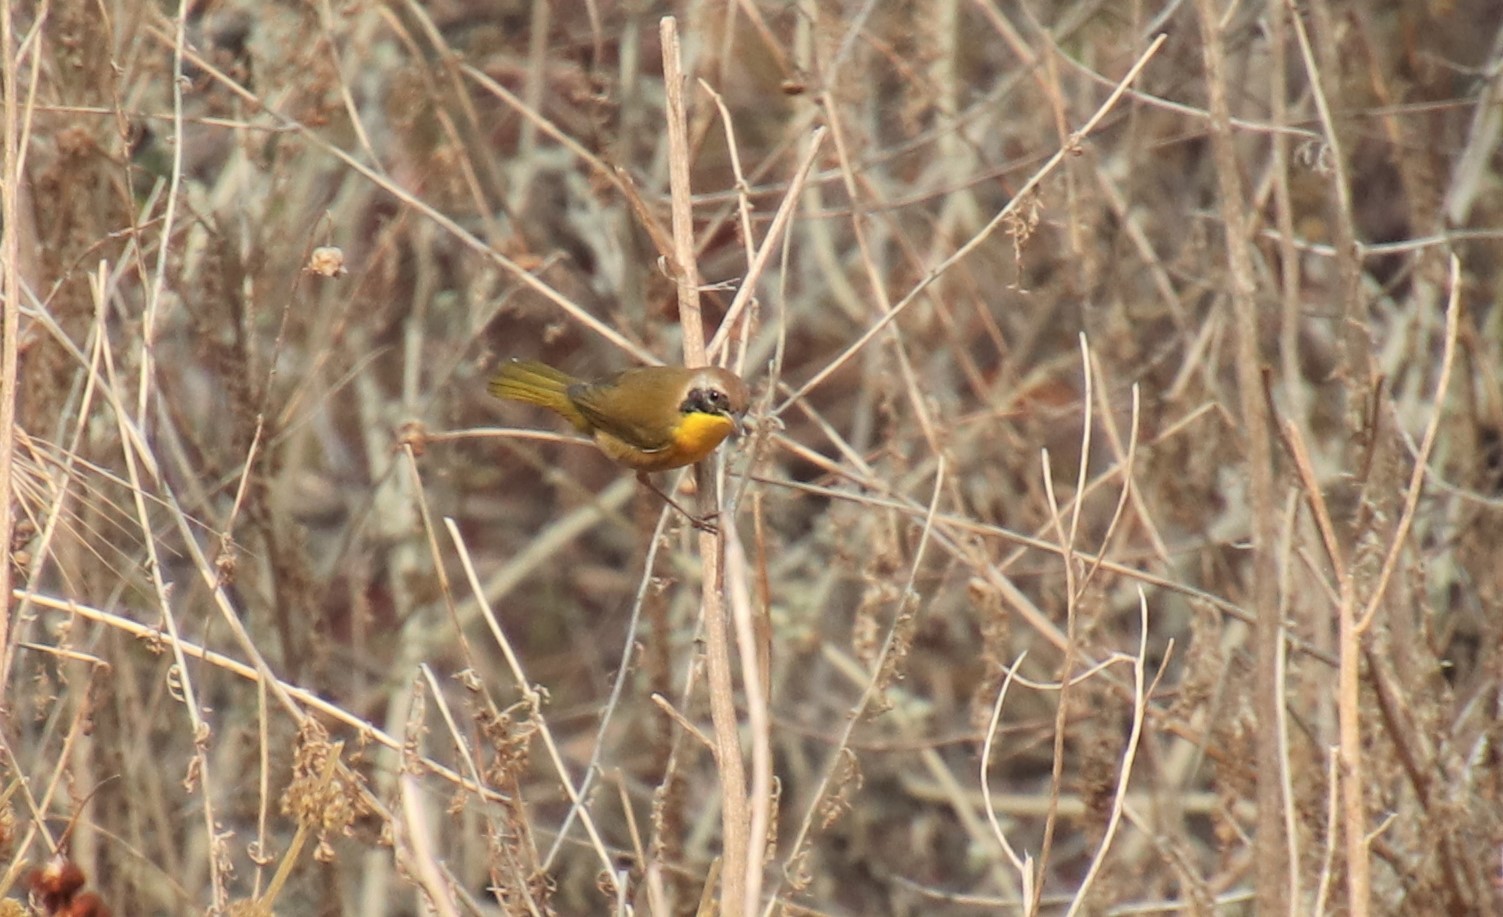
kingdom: Animalia
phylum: Chordata
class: Aves
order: Passeriformes
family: Parulidae
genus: Geothlypis
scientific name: Geothlypis trichas
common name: Common yellowthroat
